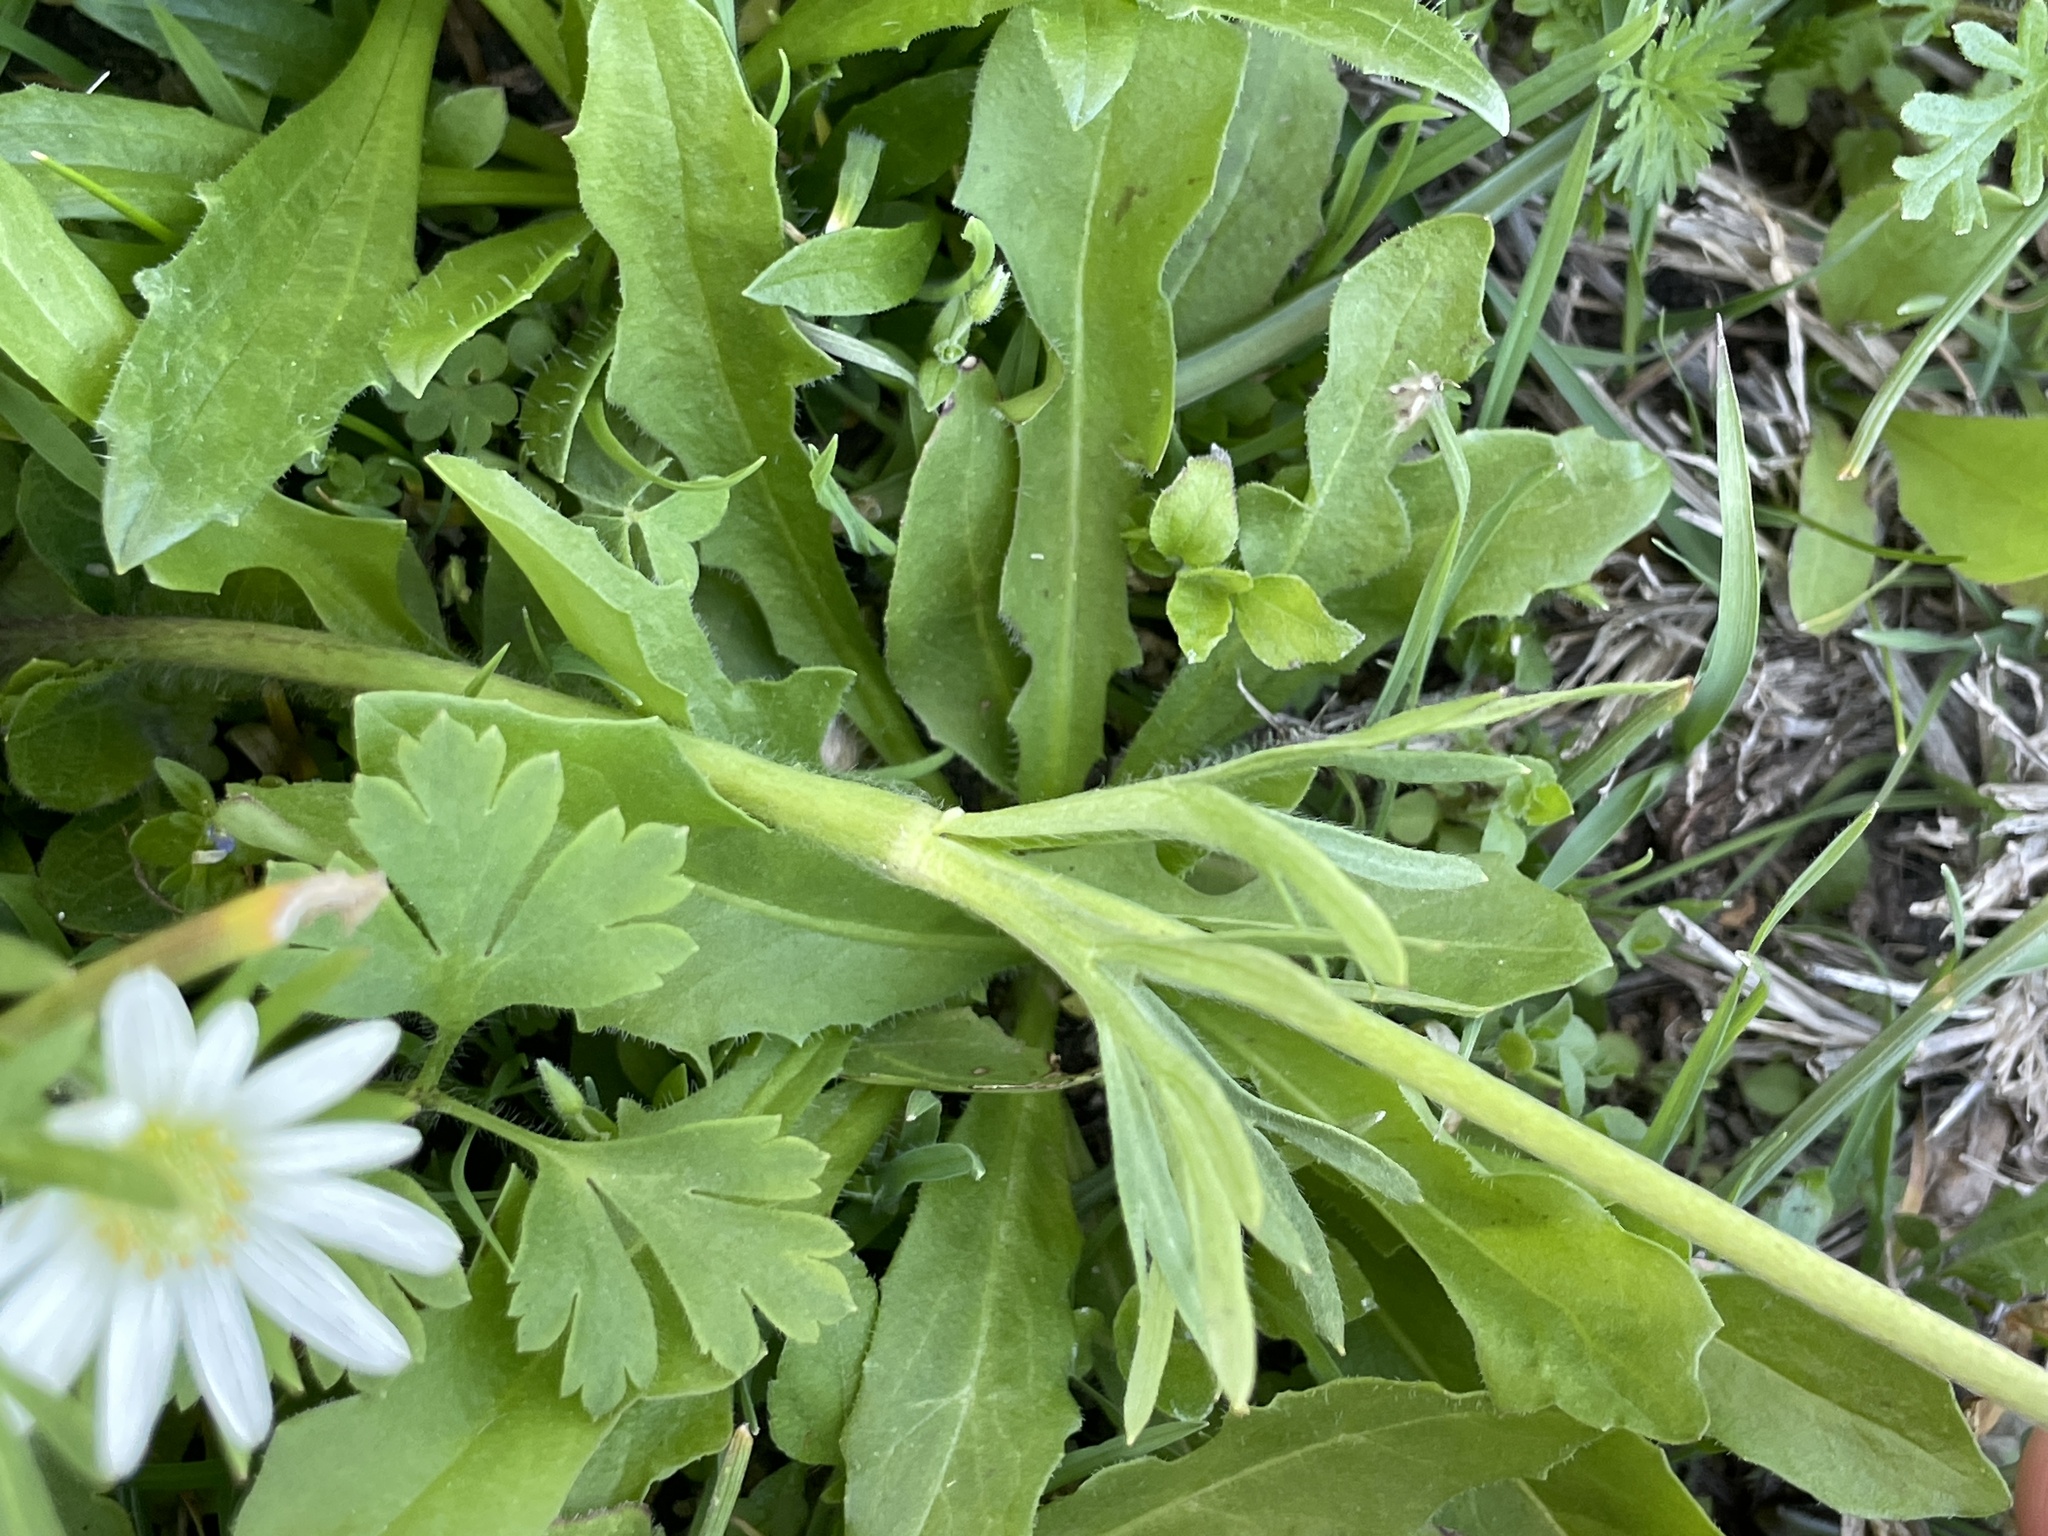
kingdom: Plantae
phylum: Tracheophyta
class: Magnoliopsida
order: Ranunculales
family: Ranunculaceae
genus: Anemone
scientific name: Anemone berlandieri
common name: Ten-petal anemone
